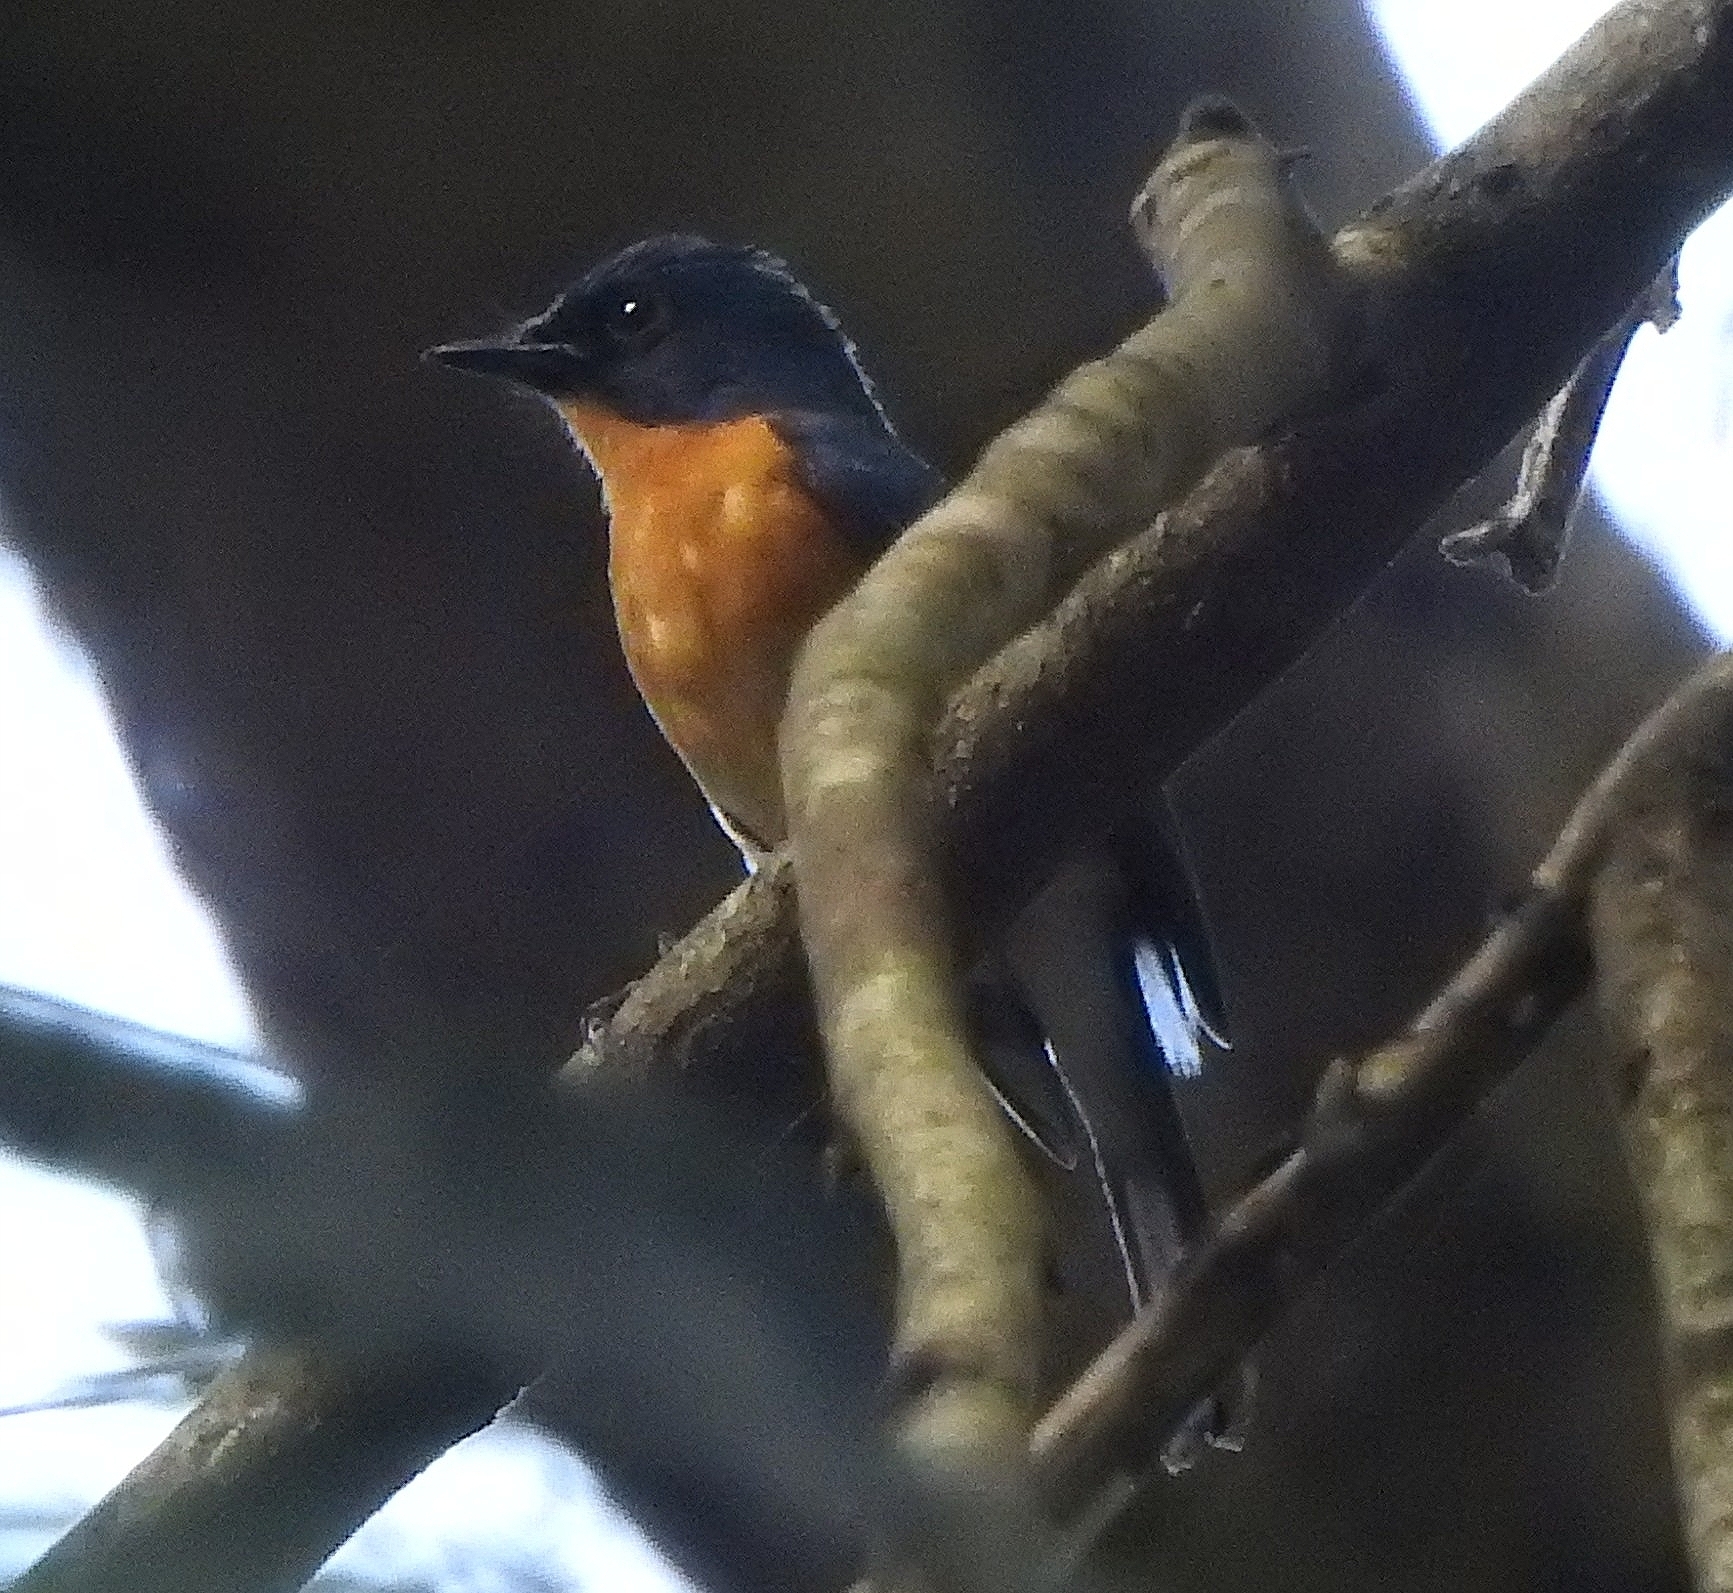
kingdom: Animalia
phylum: Chordata
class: Aves
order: Passeriformes
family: Muscicapidae
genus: Cyornis
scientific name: Cyornis tickelliae
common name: Tickell's blue flycatcher
